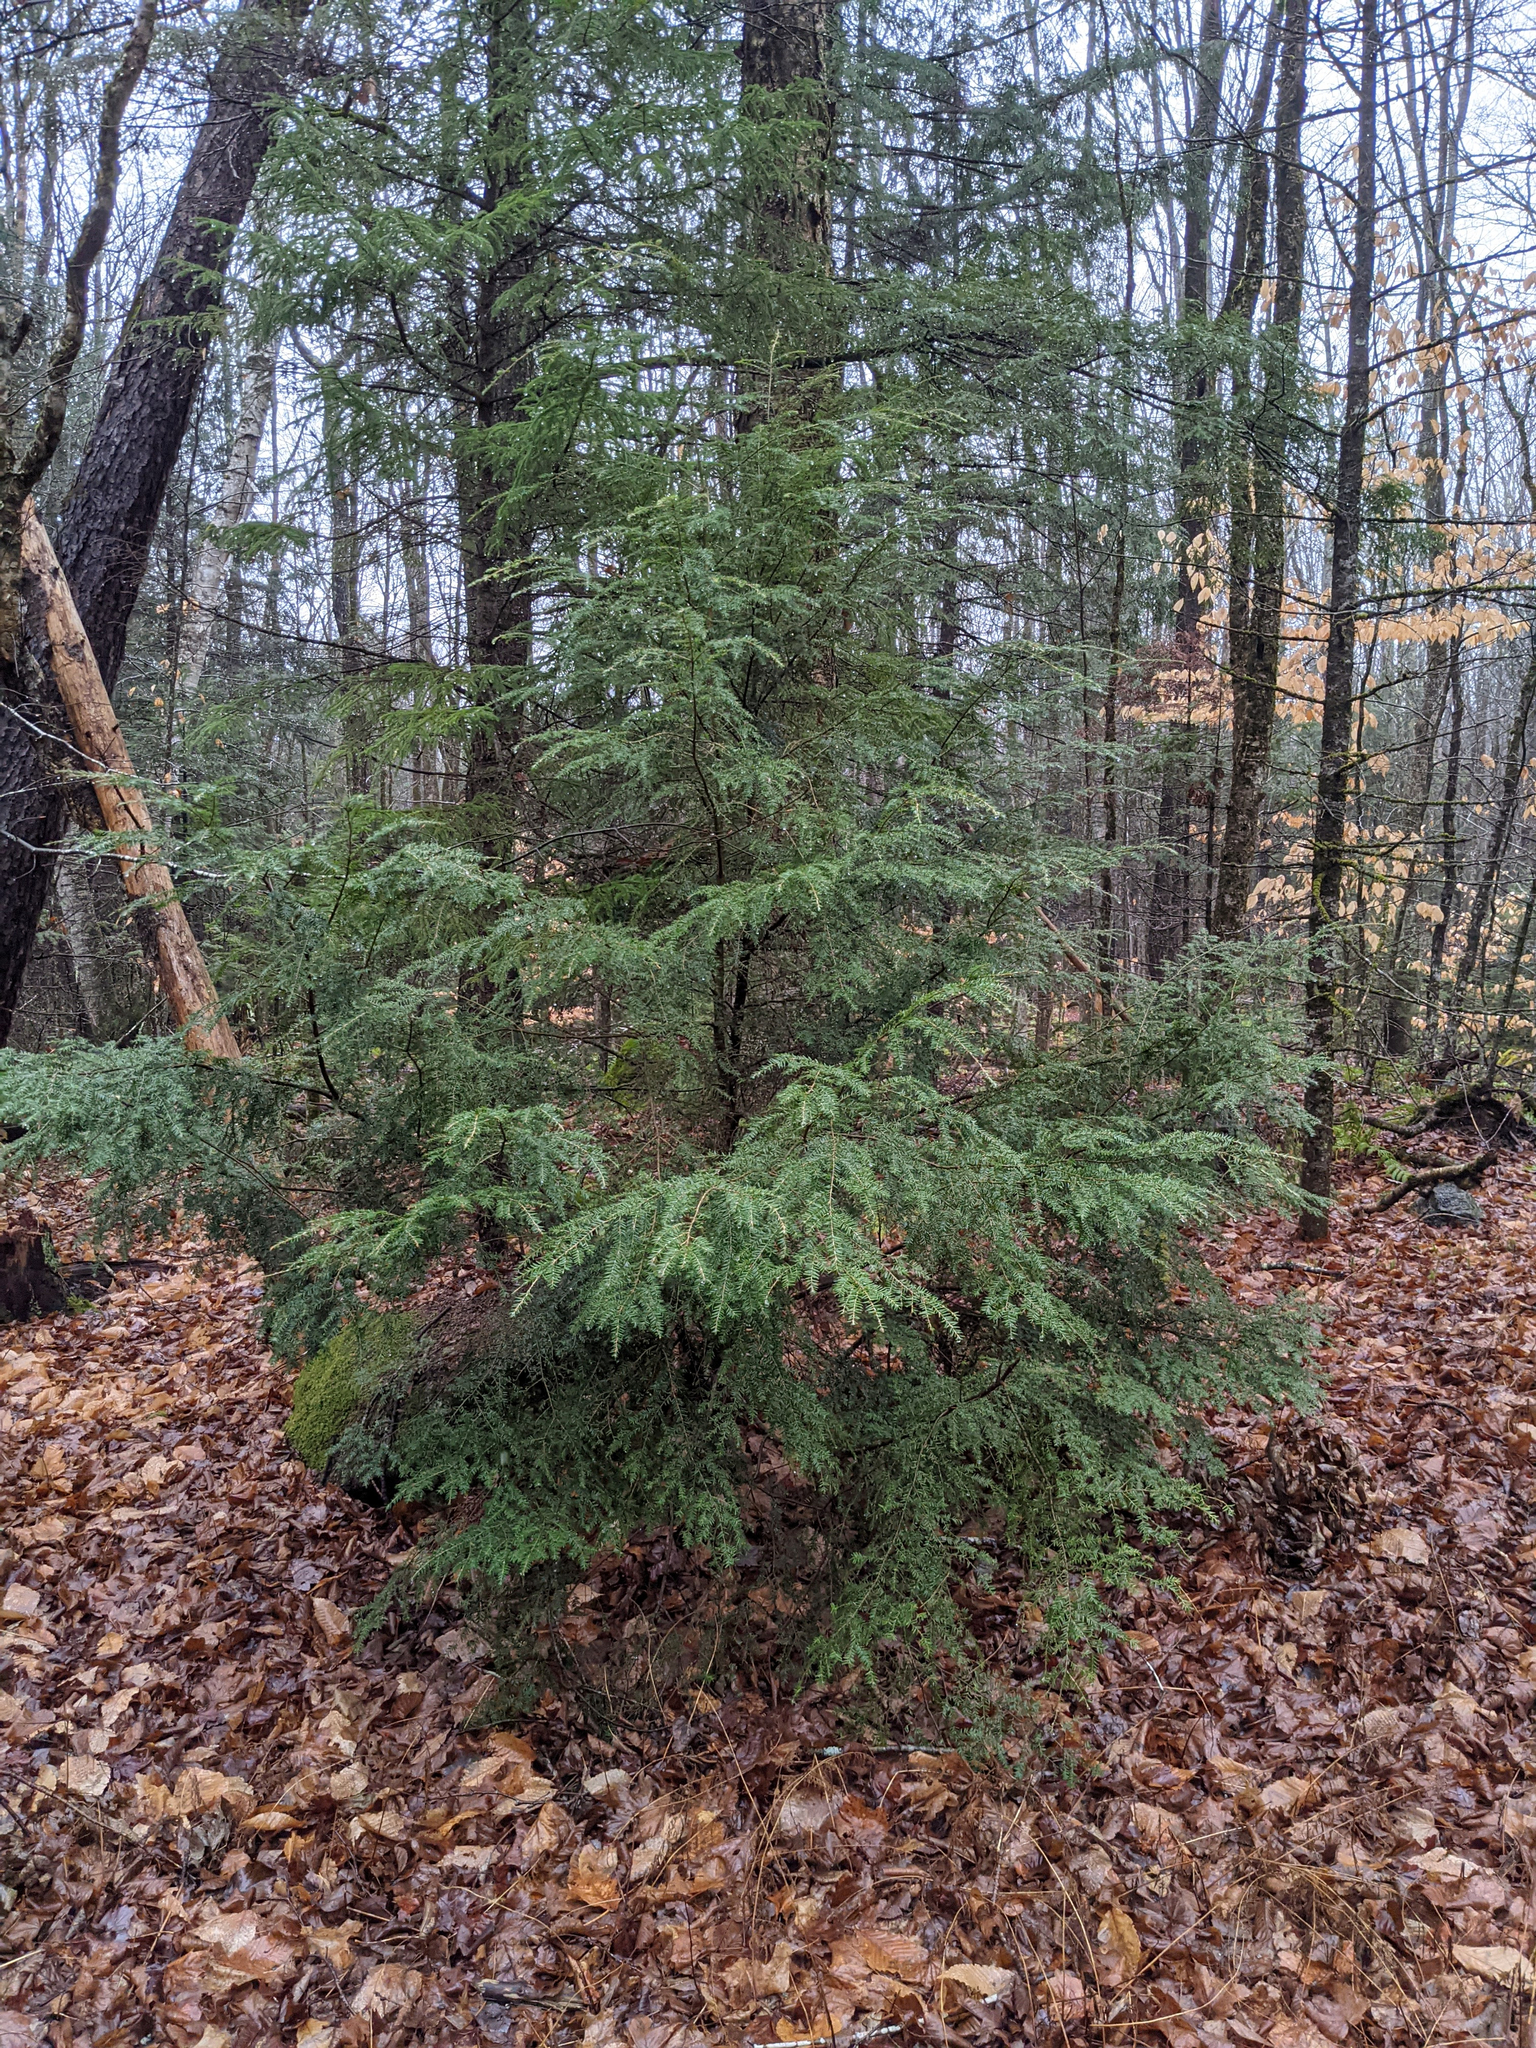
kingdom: Plantae
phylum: Tracheophyta
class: Pinopsida
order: Pinales
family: Pinaceae
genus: Tsuga
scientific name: Tsuga canadensis
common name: Eastern hemlock
